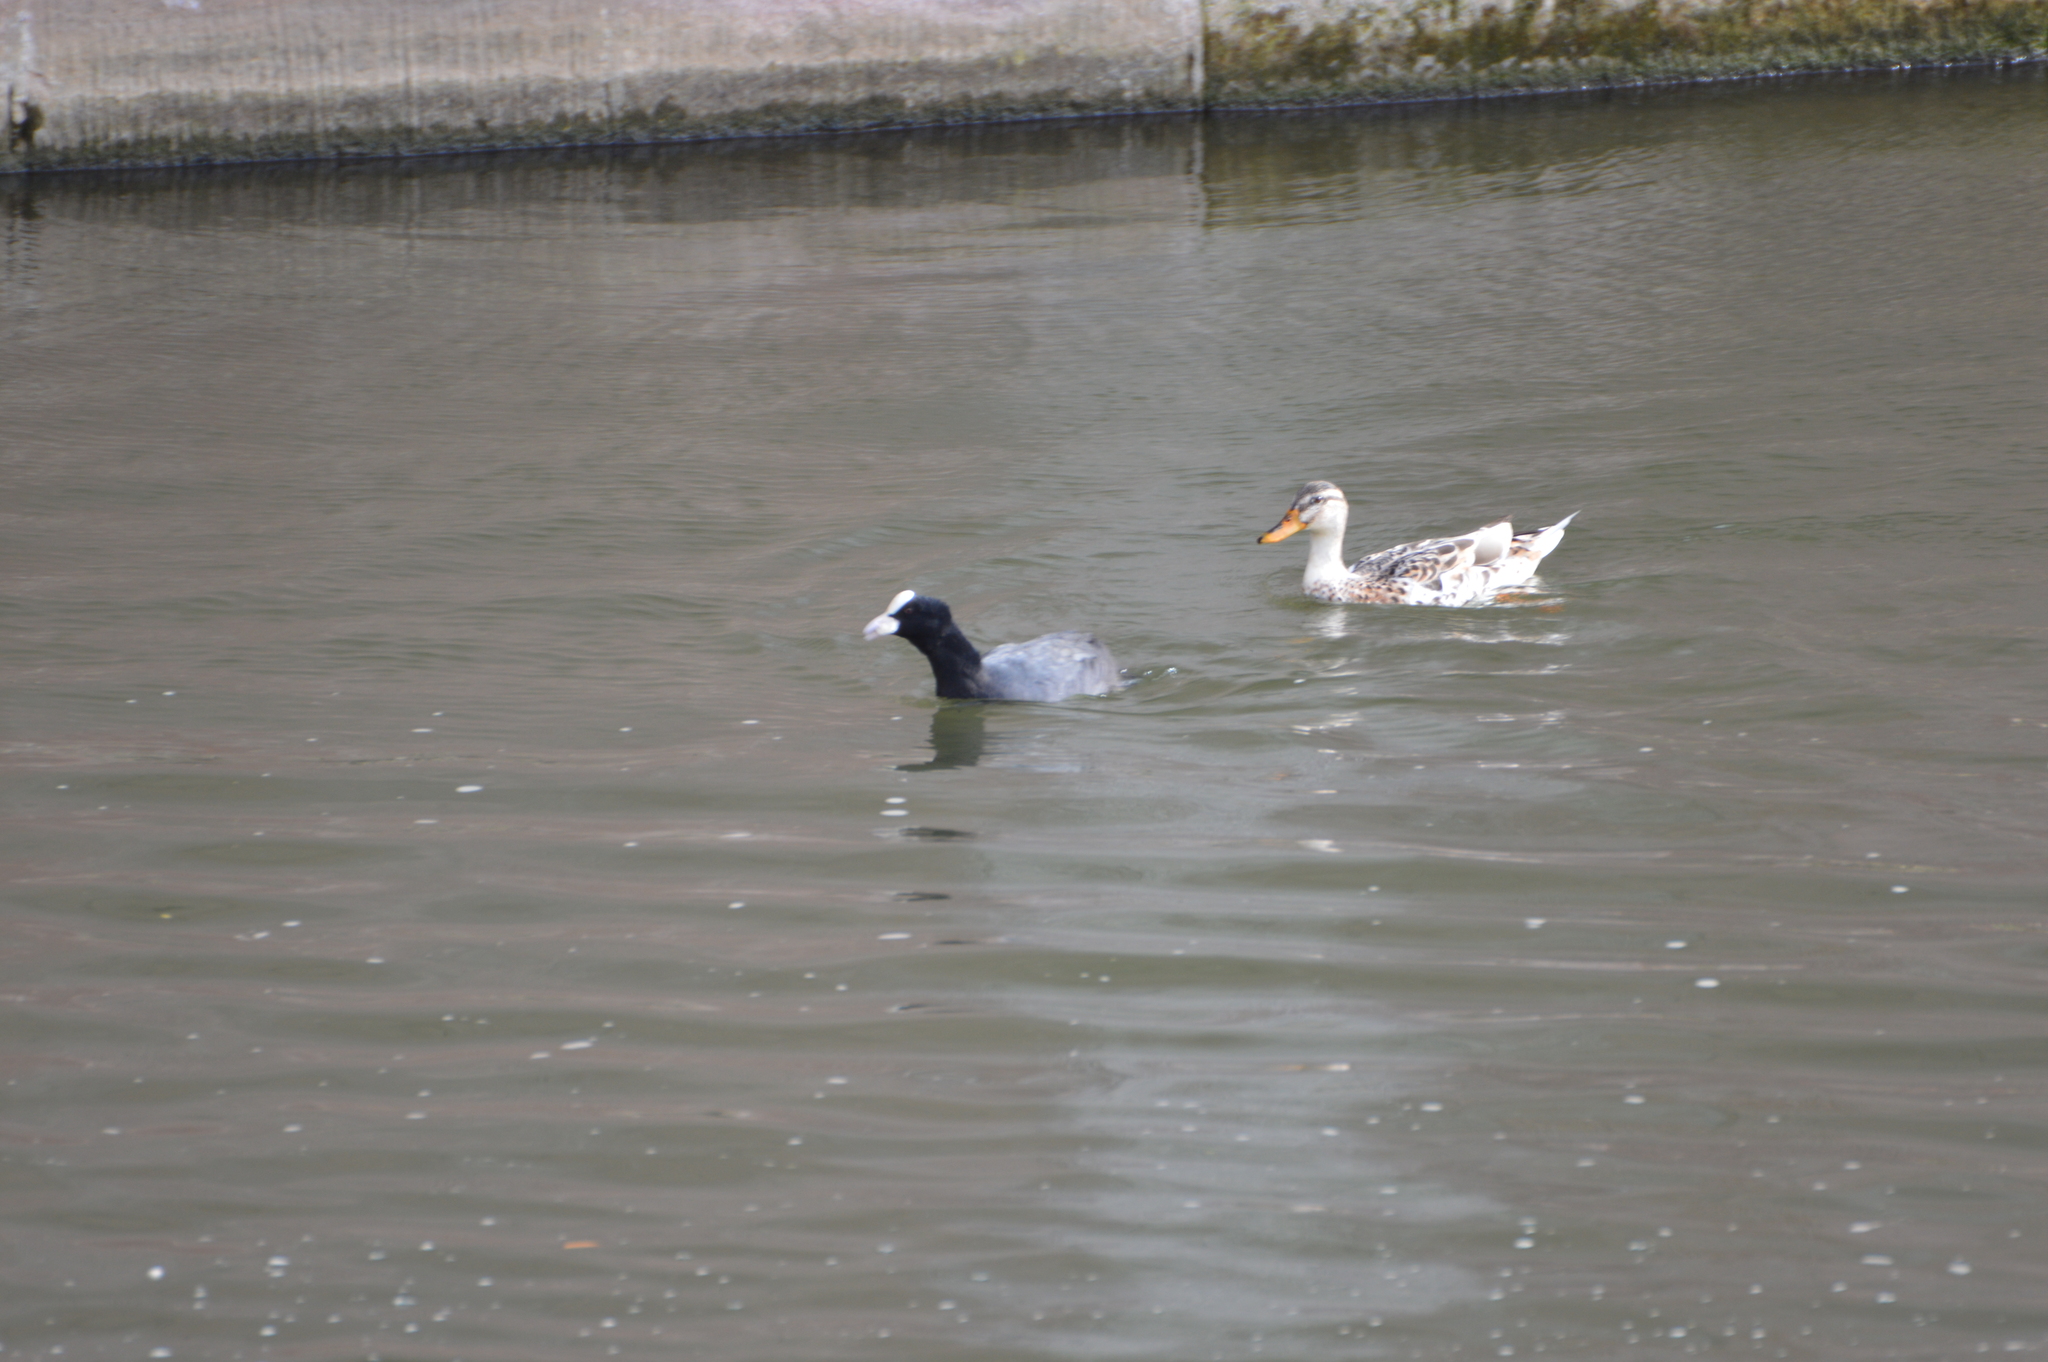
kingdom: Animalia
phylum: Chordata
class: Aves
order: Gruiformes
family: Rallidae
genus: Fulica
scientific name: Fulica atra
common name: Eurasian coot
